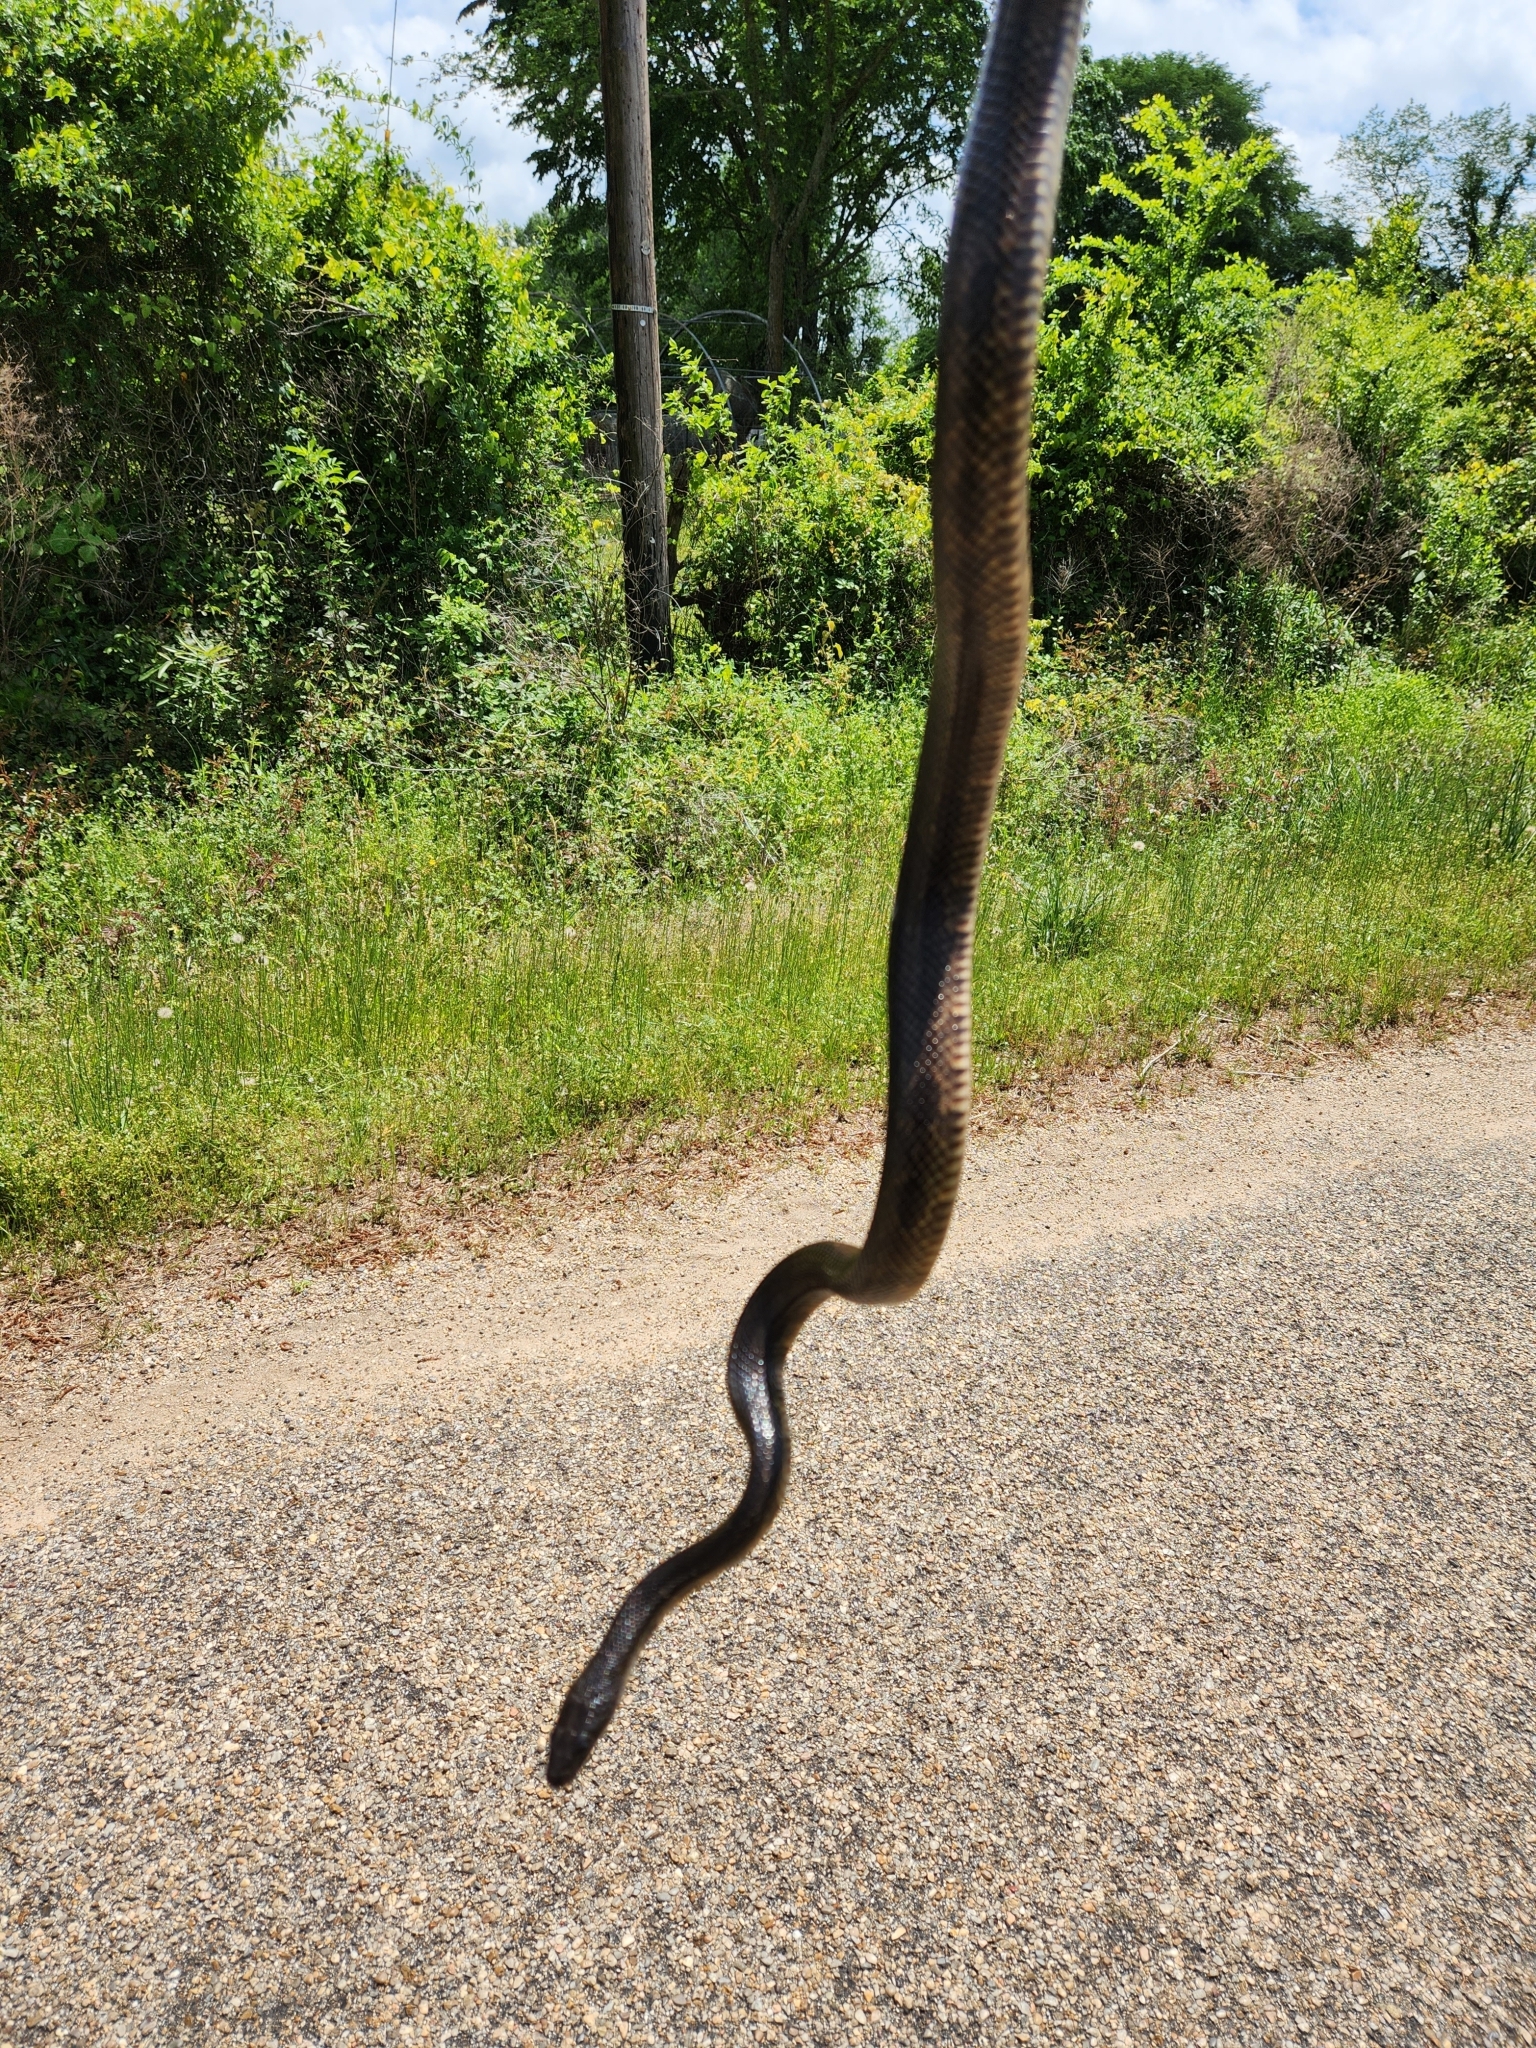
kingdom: Animalia
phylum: Chordata
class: Squamata
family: Colubridae
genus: Pantherophis
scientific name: Pantherophis obsoletus
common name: Black rat snake
